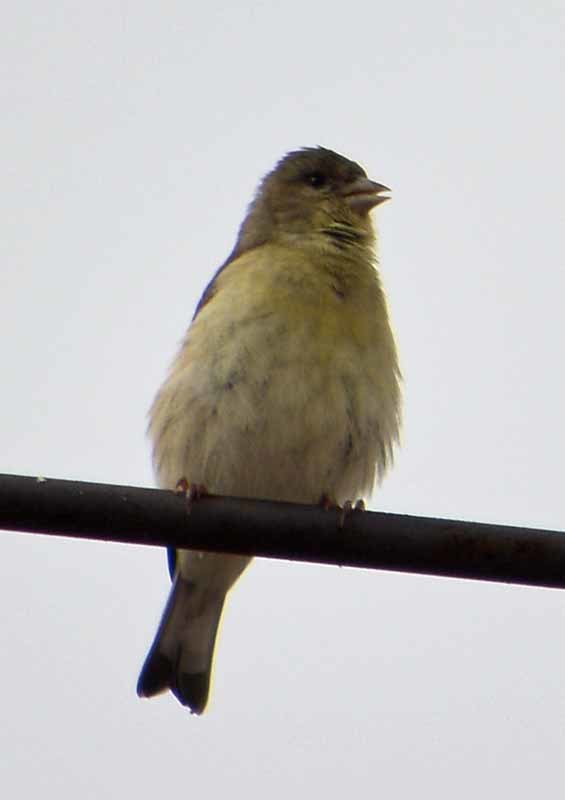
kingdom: Animalia
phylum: Chordata
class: Aves
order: Passeriformes
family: Fringillidae
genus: Spinus
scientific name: Spinus psaltria
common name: Lesser goldfinch
